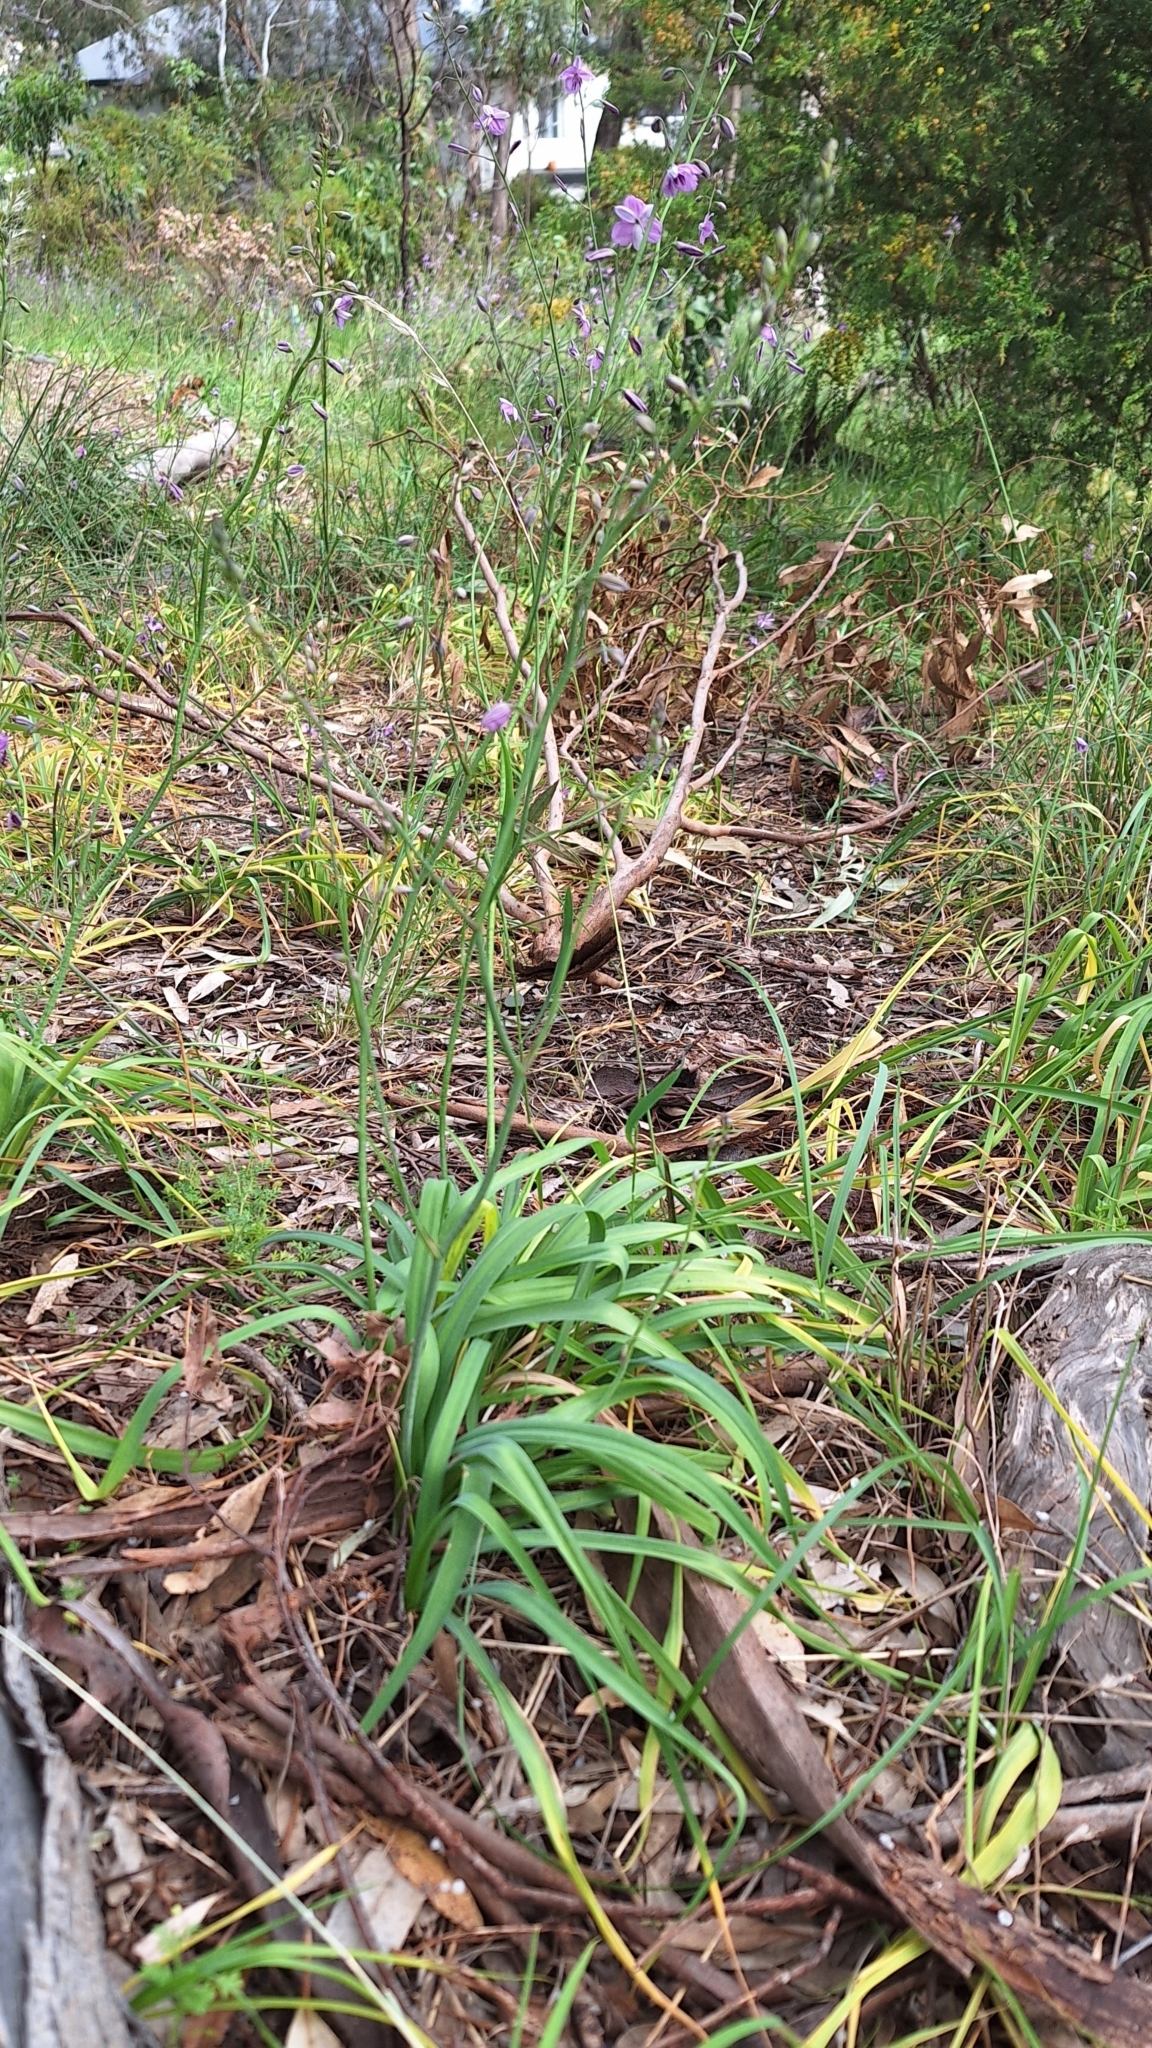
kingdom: Plantae
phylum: Tracheophyta
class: Liliopsida
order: Asparagales
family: Asparagaceae
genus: Arthropodium
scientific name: Arthropodium strictum
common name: Chocolate-lily
